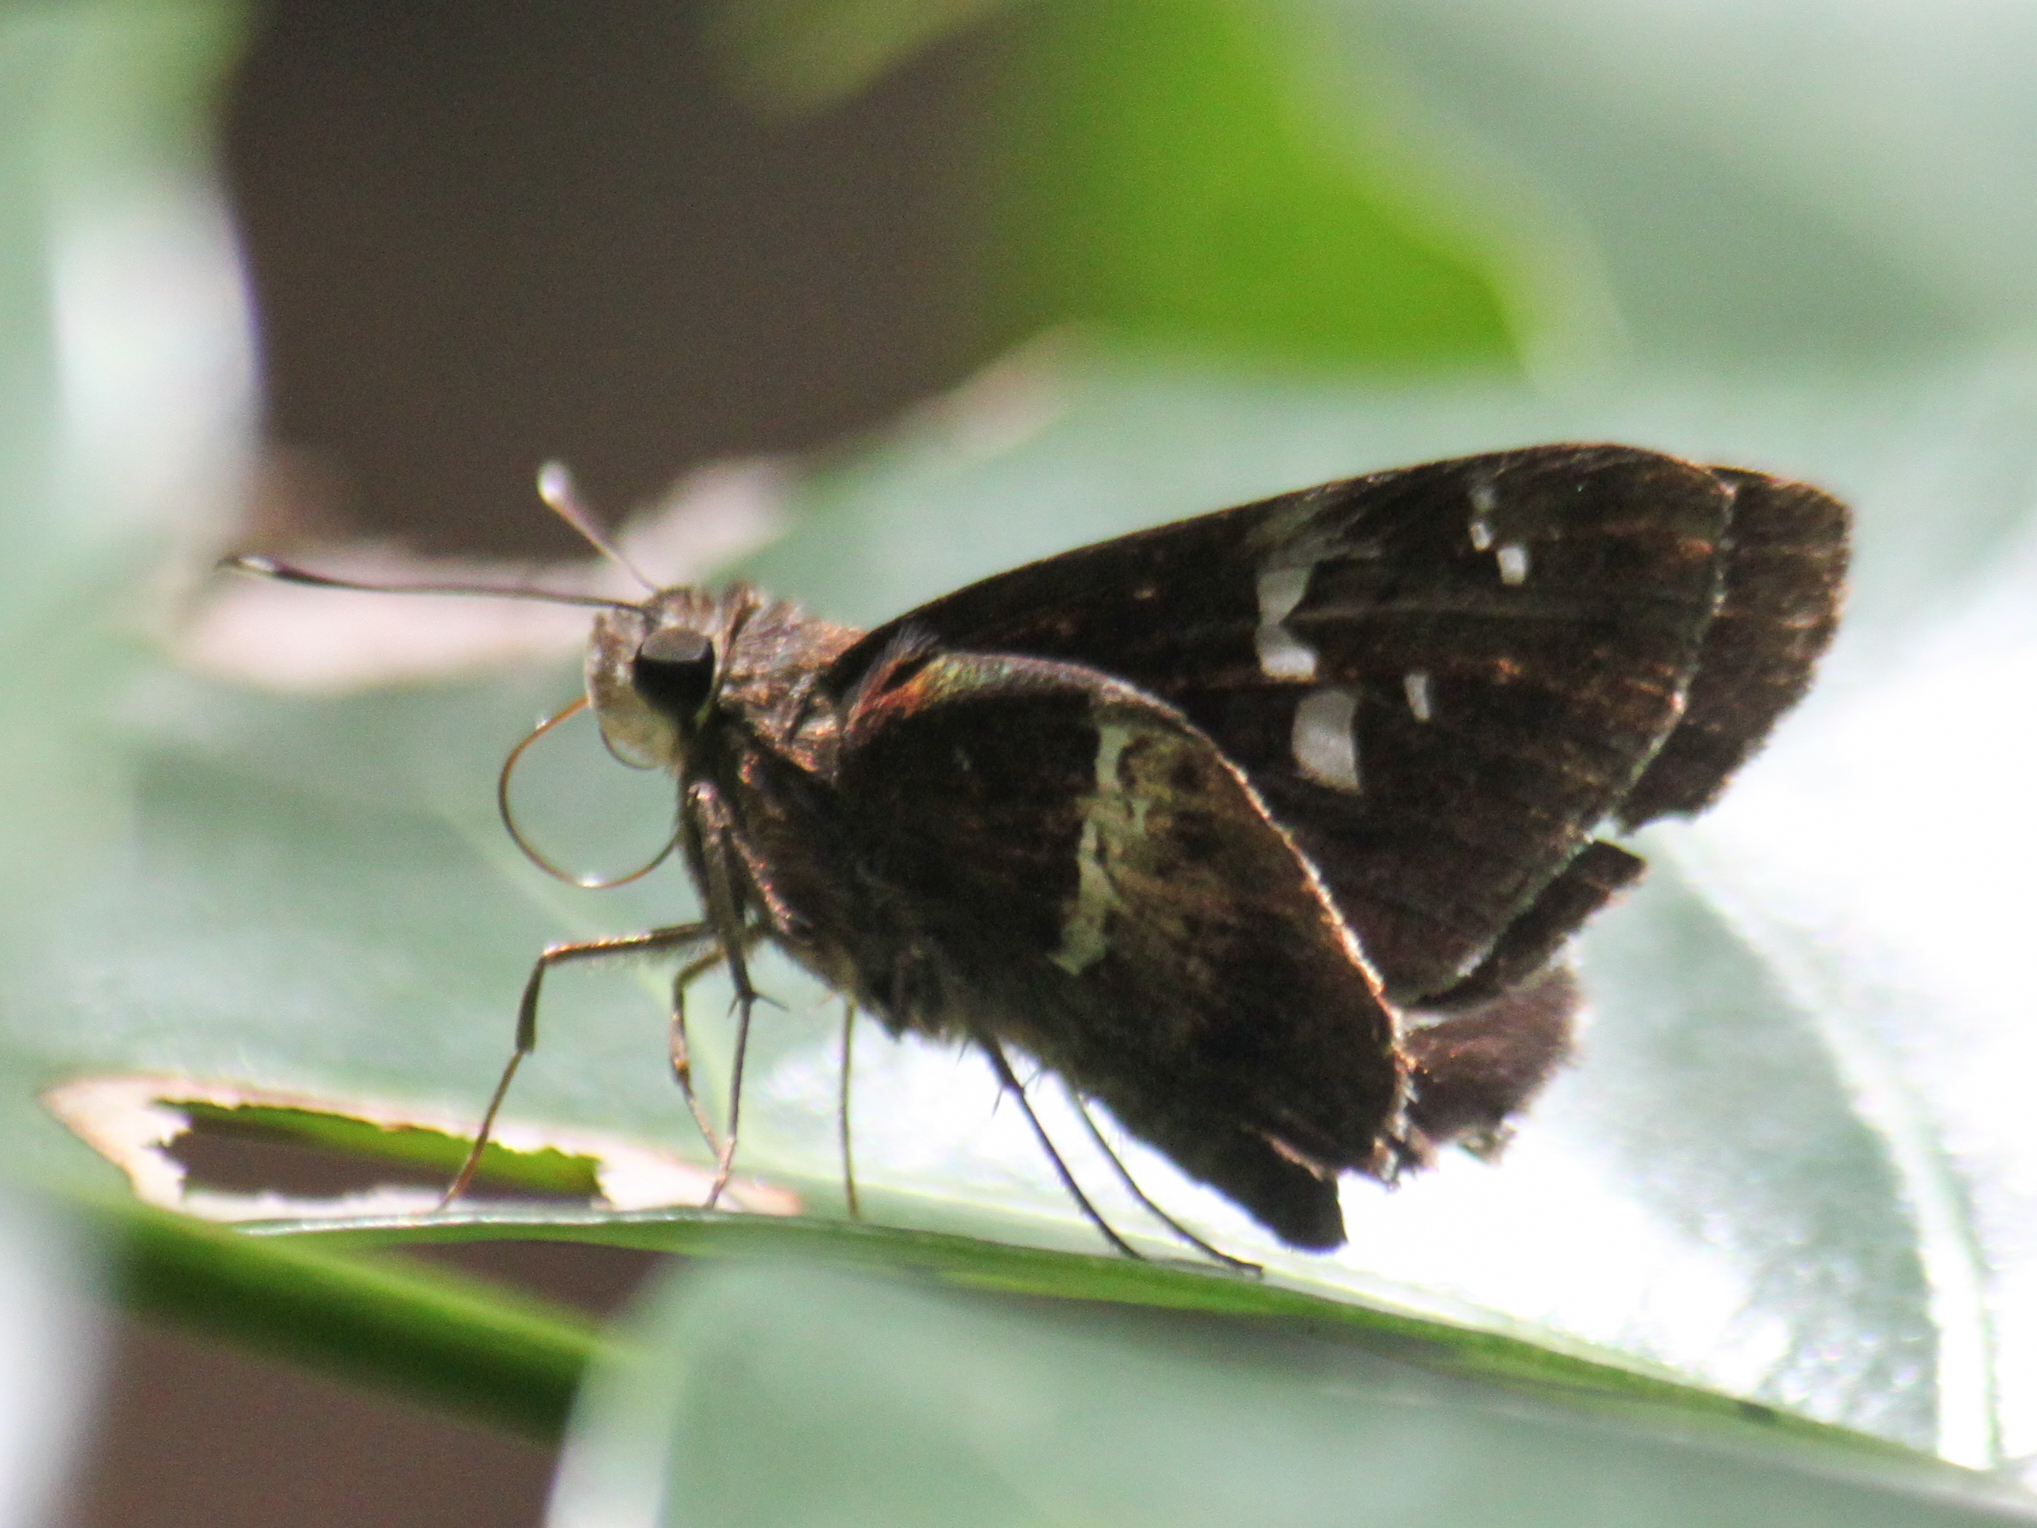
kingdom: Animalia
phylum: Arthropoda
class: Insecta
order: Lepidoptera
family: Hesperiidae
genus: Hyarotis
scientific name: Hyarotis adrastus
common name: Tree flitter
